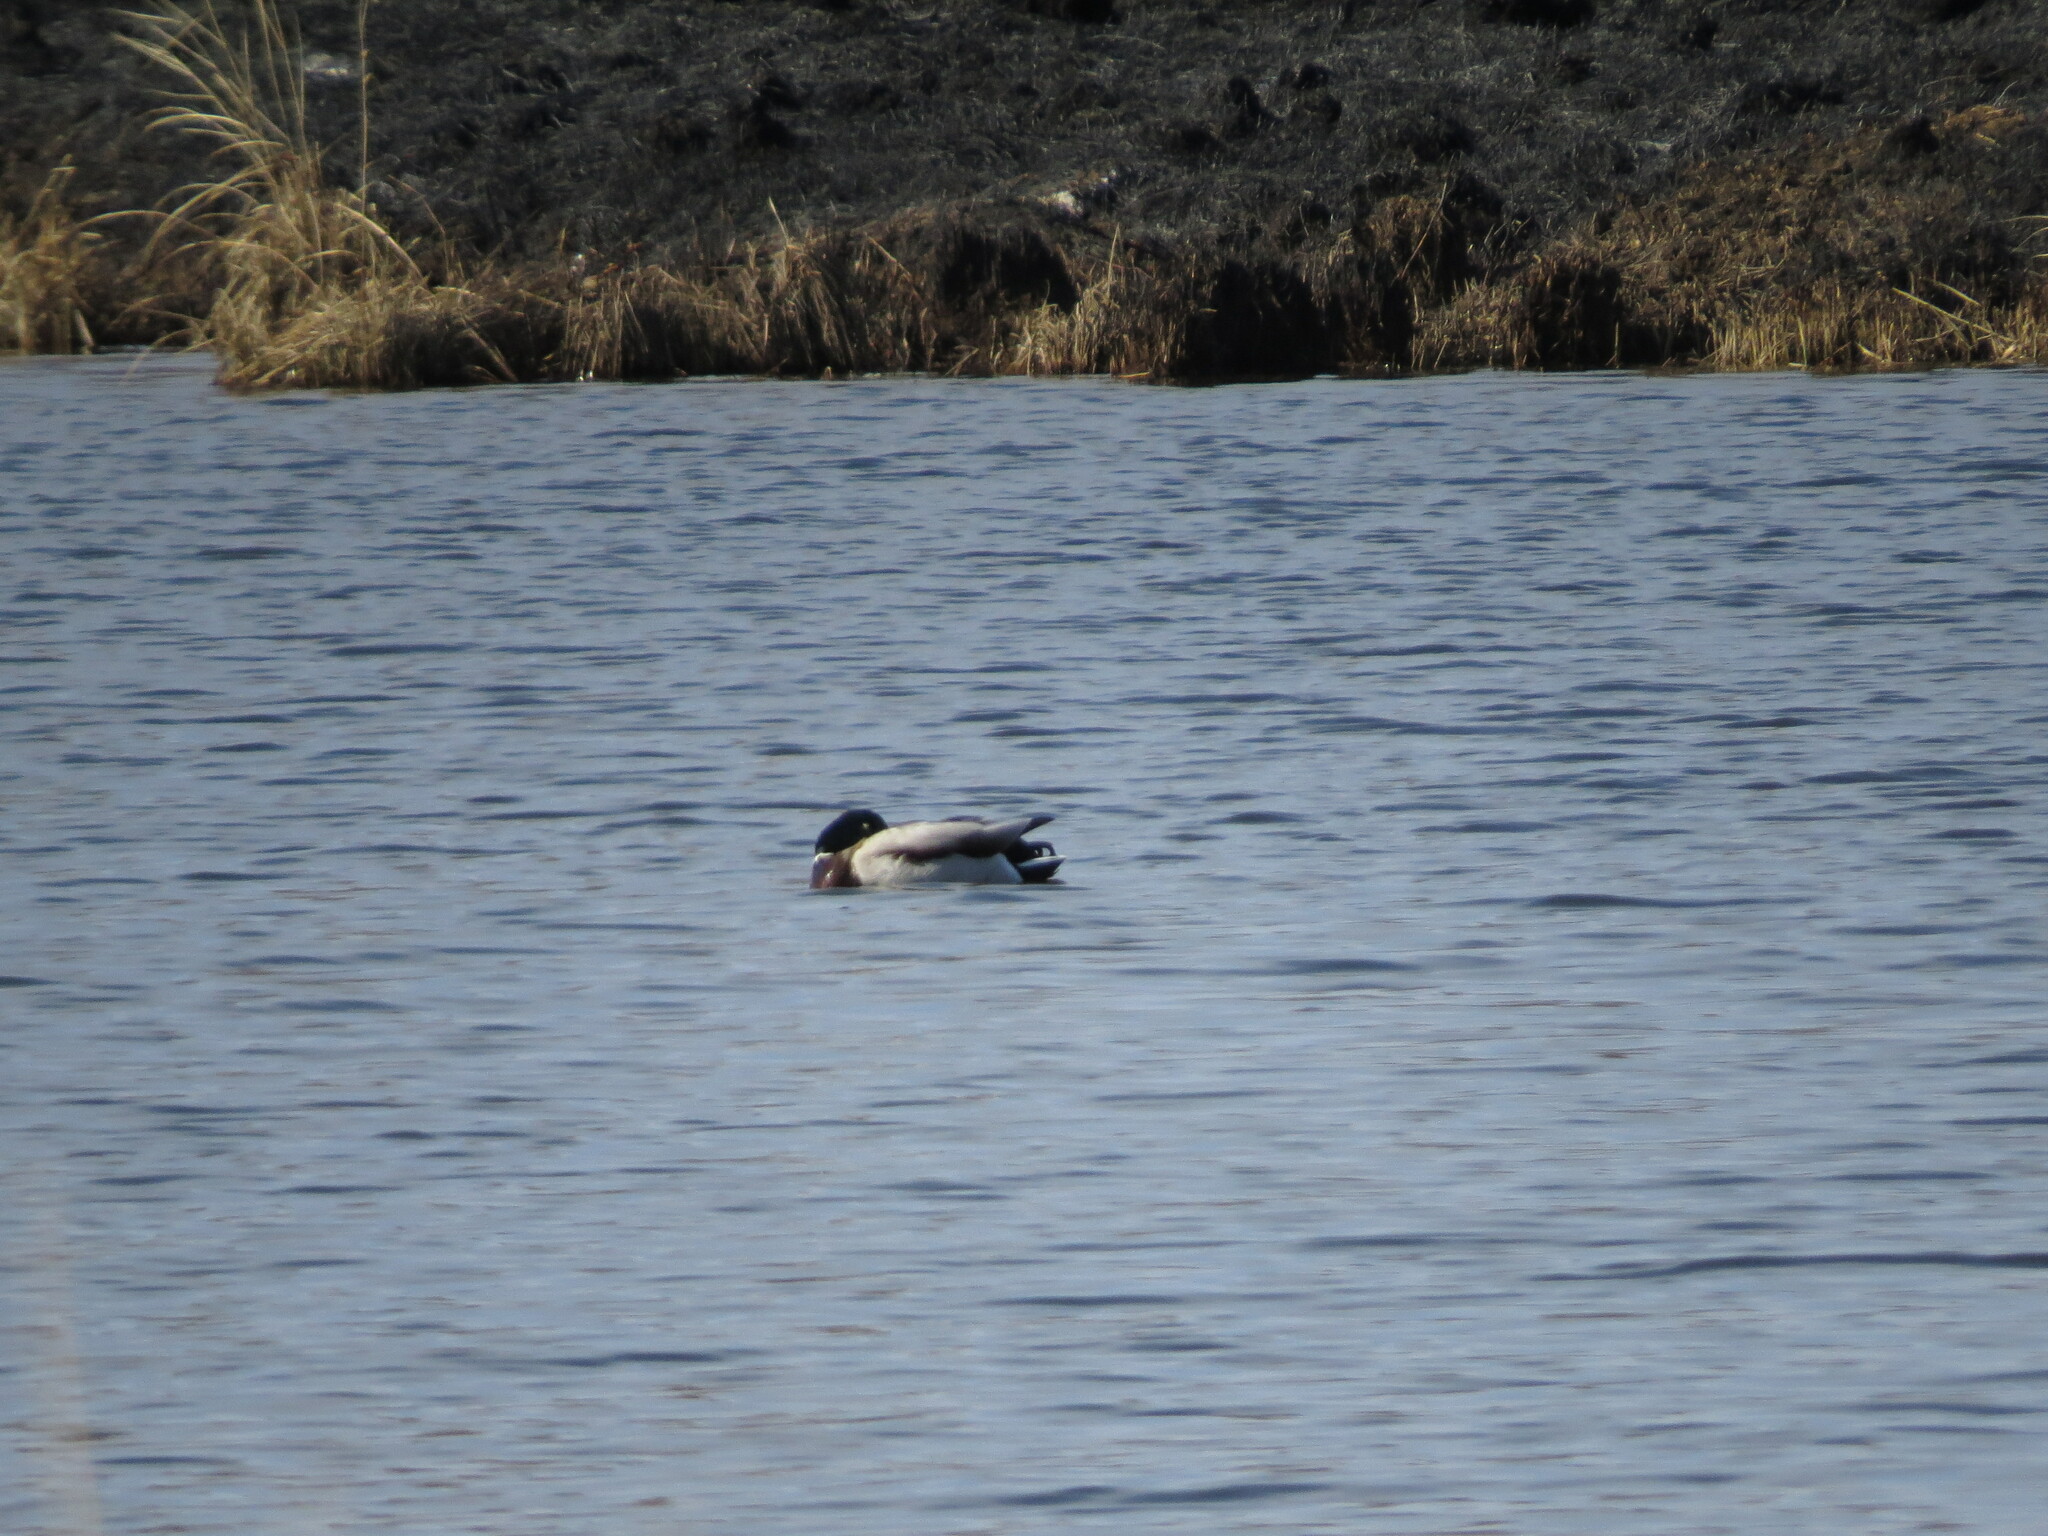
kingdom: Animalia
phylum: Chordata
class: Aves
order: Anseriformes
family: Anatidae
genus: Anas
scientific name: Anas platyrhynchos
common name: Mallard
